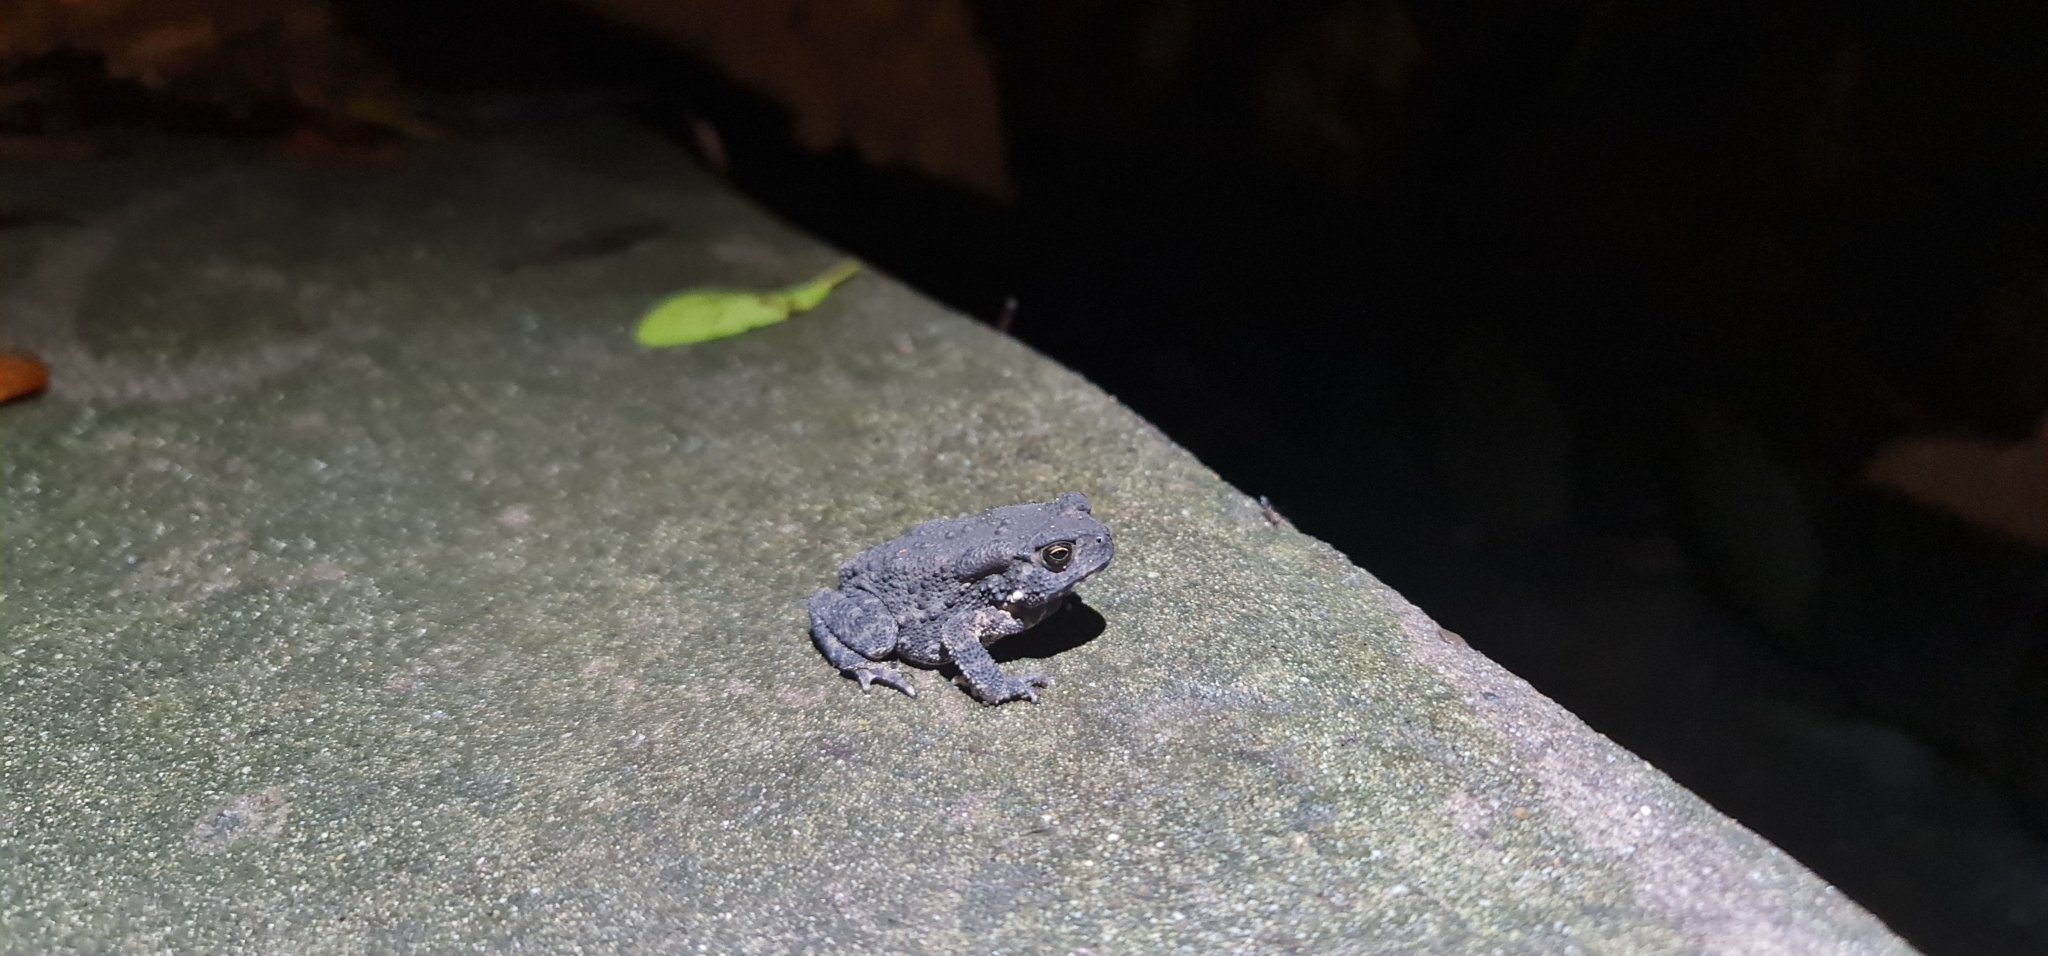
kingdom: Animalia
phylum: Chordata
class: Amphibia
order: Anura
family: Bufonidae
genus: Duttaphrynus
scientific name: Duttaphrynus melanostictus
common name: Common sunda toad
